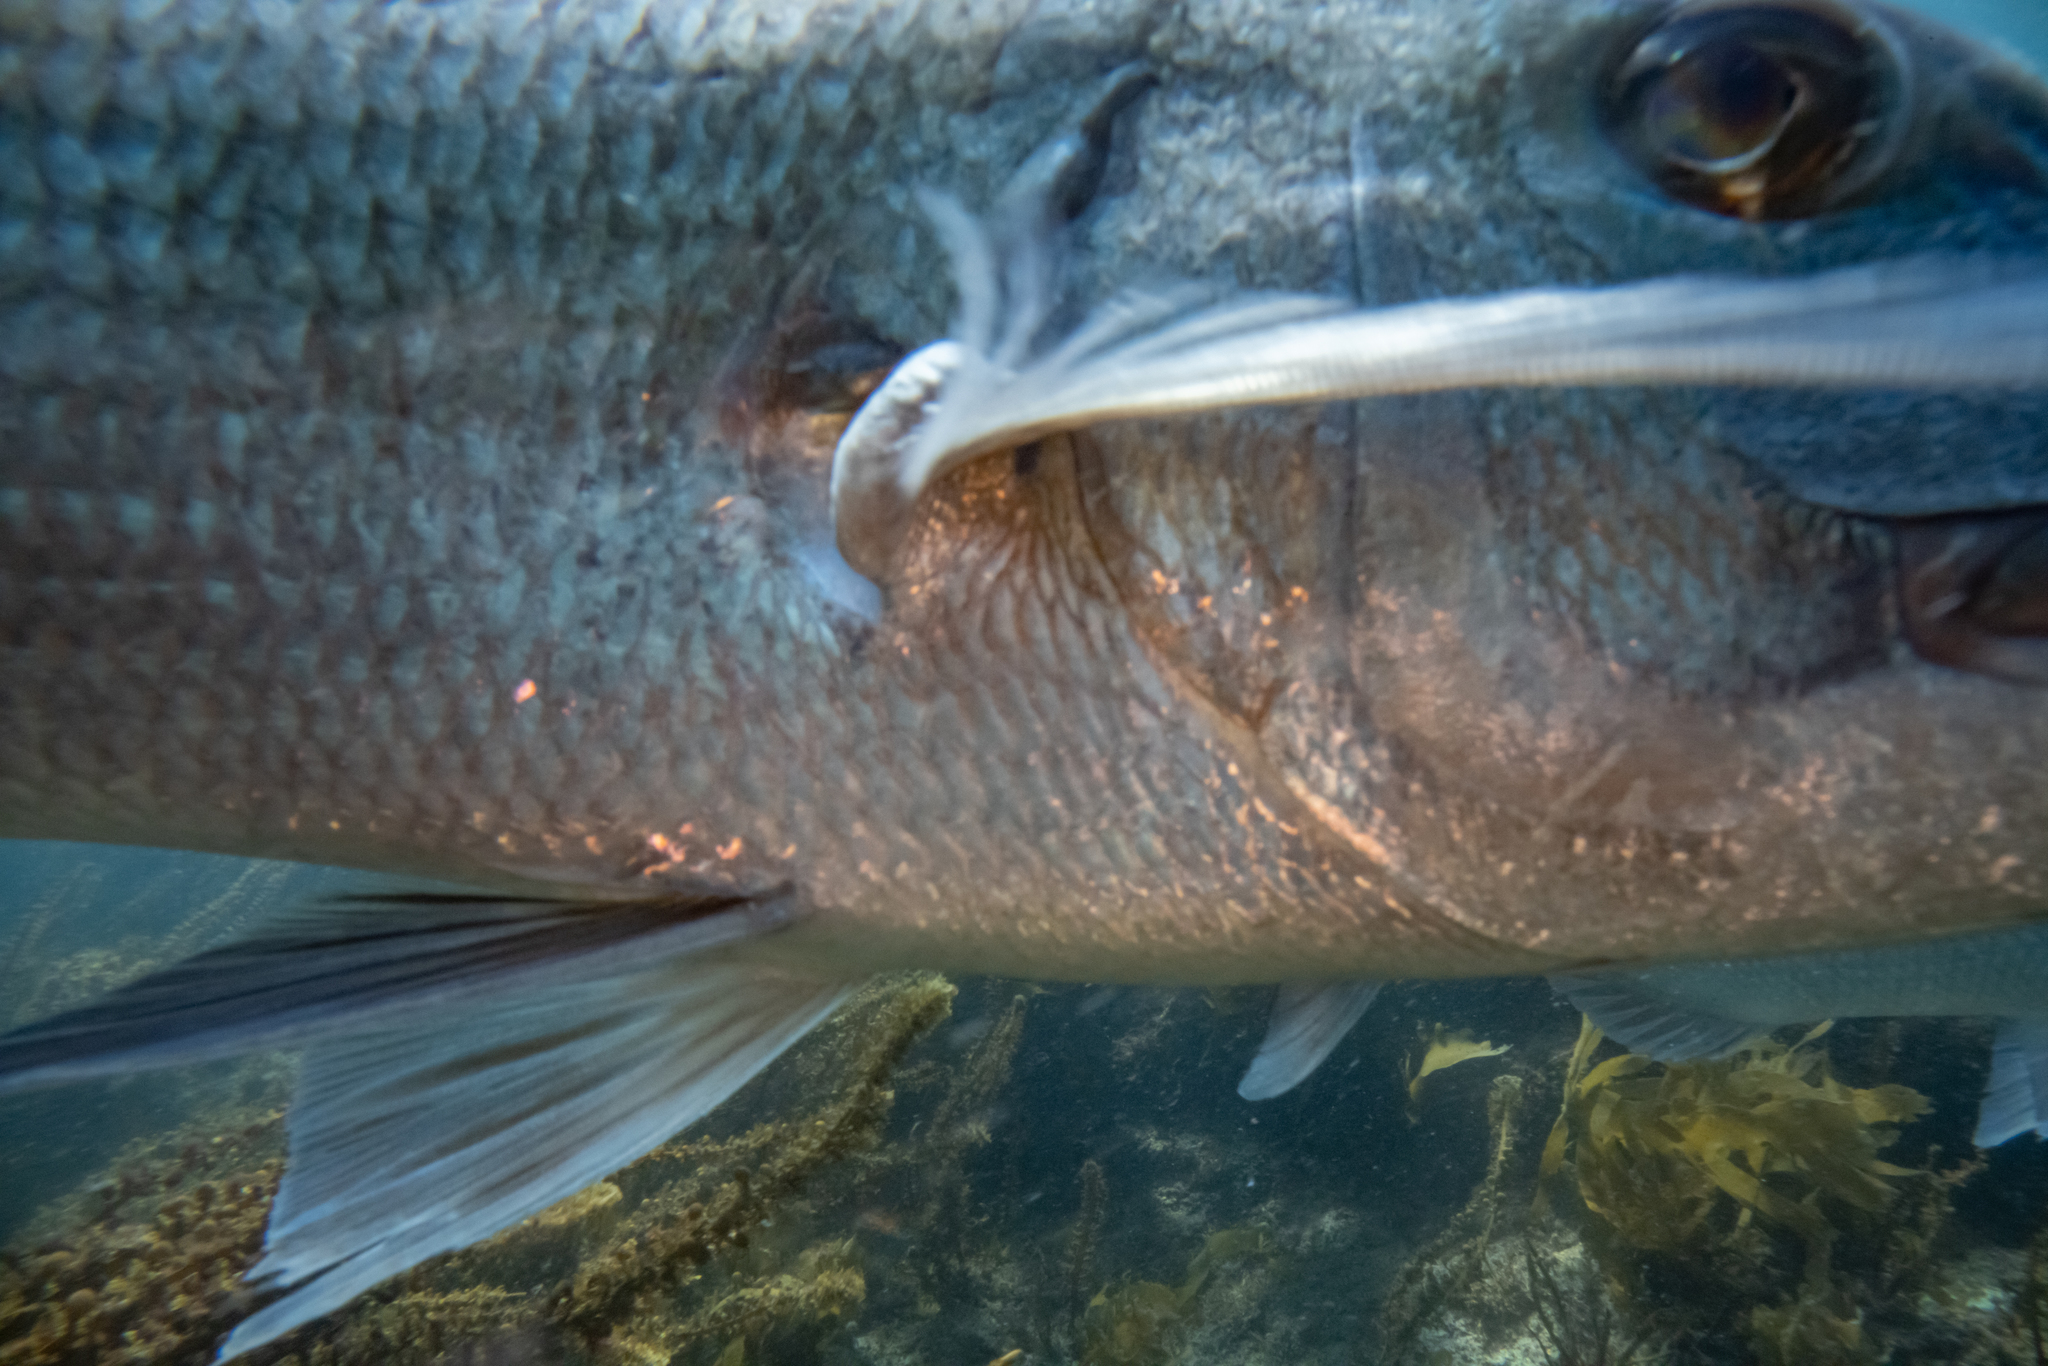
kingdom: Animalia
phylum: Chordata
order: Perciformes
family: Sparidae
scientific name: Sparidae
